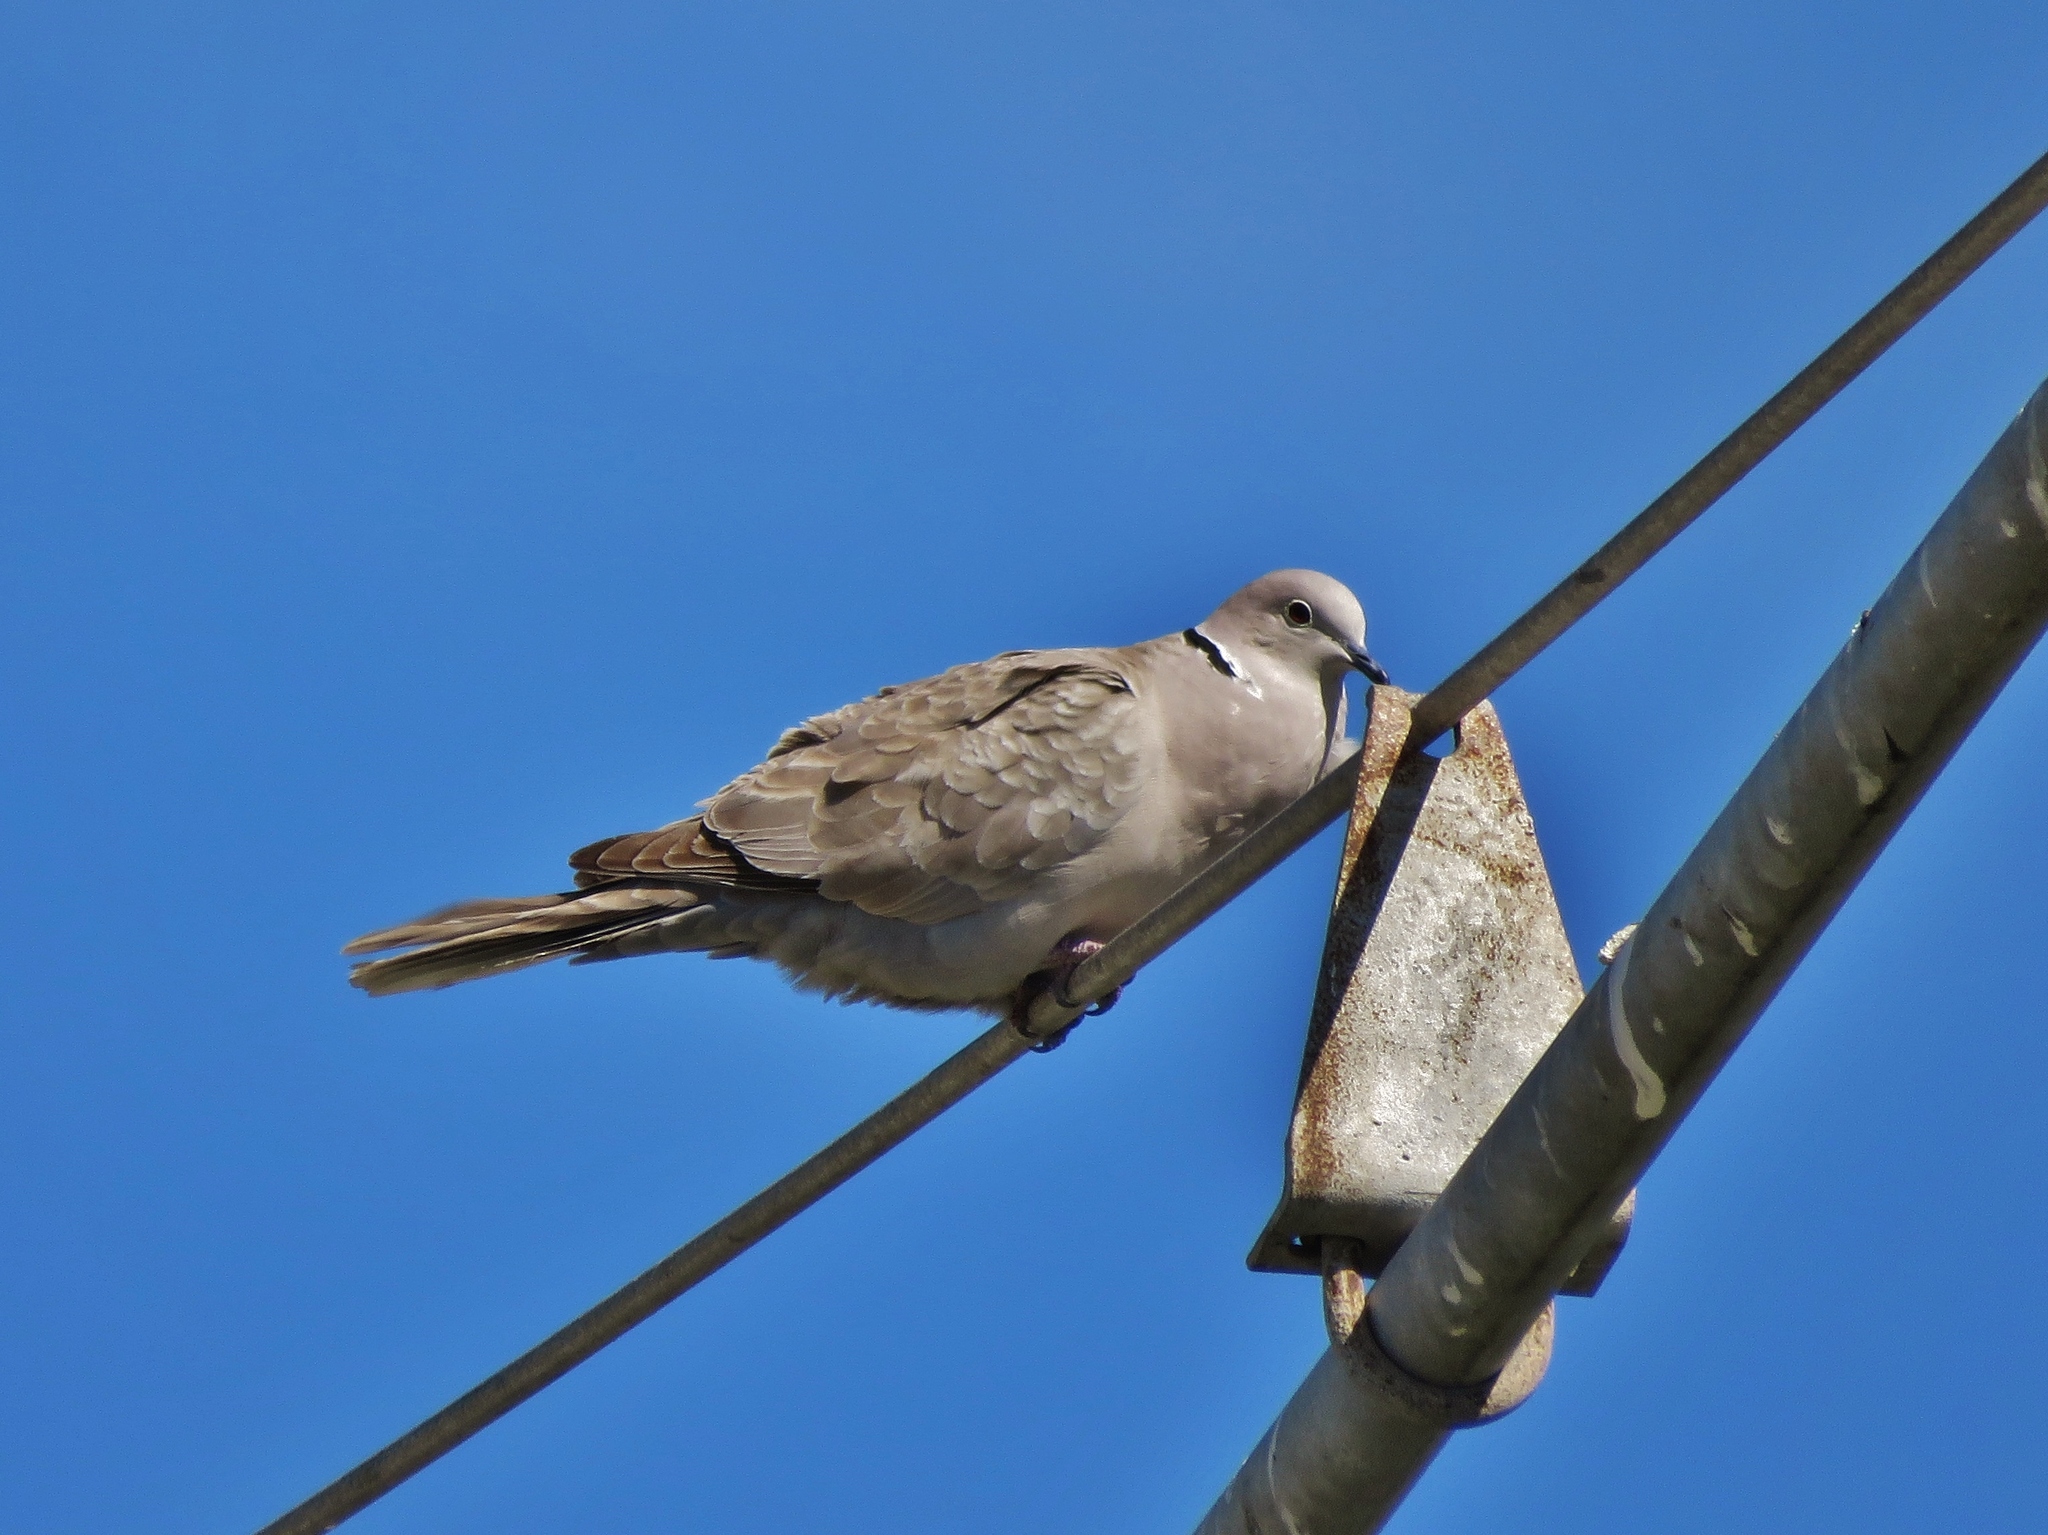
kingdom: Animalia
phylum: Chordata
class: Aves
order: Columbiformes
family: Columbidae
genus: Streptopelia
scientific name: Streptopelia decaocto
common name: Eurasian collared dove
